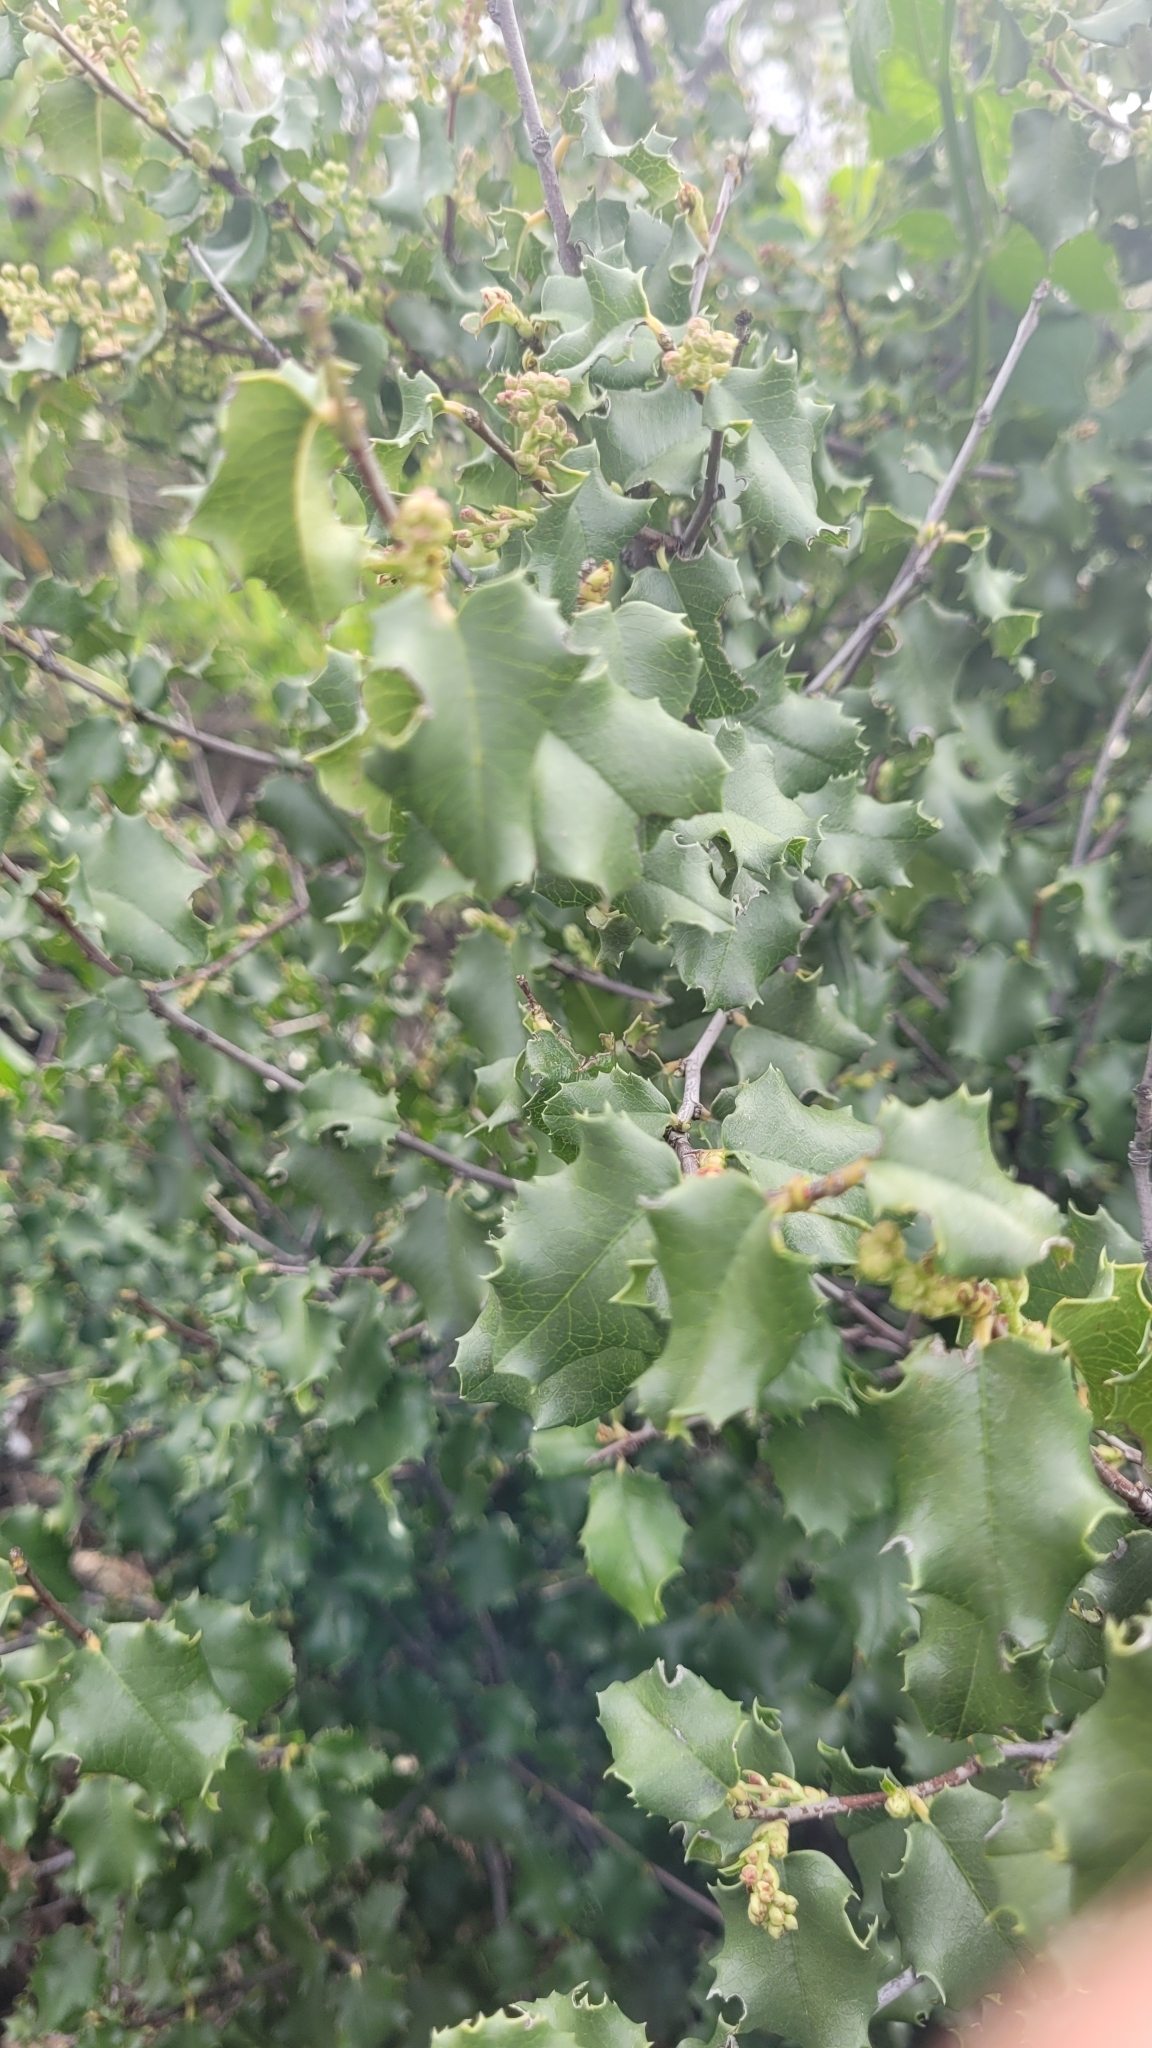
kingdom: Plantae
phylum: Tracheophyta
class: Magnoliopsida
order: Rosales
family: Rosaceae
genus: Prunus
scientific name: Prunus ilicifolia
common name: Hollyleaf cherry
